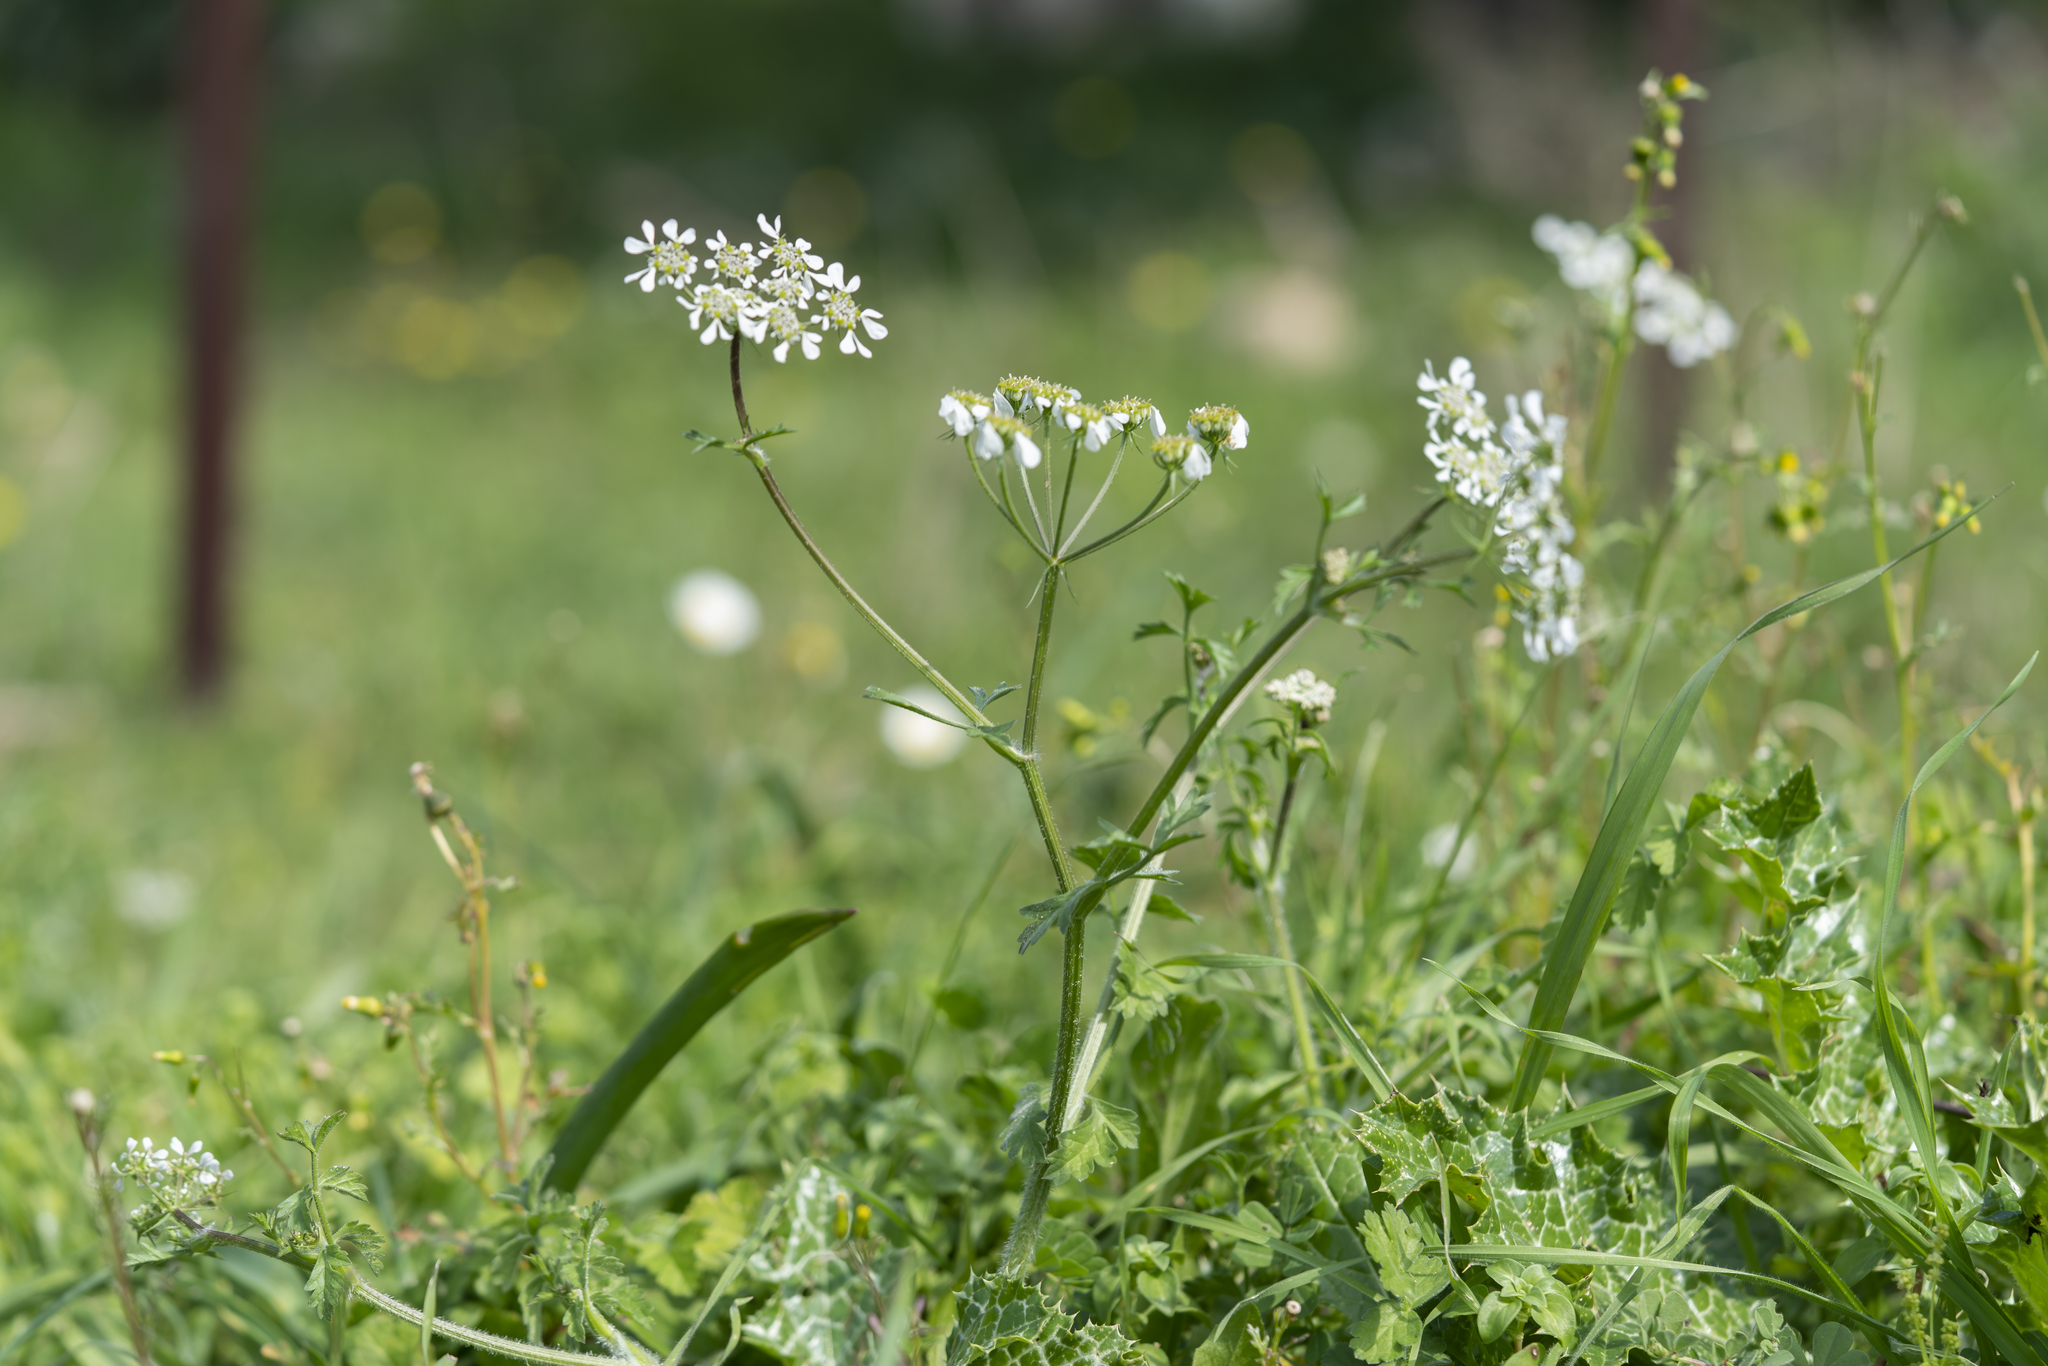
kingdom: Plantae
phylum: Tracheophyta
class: Magnoliopsida
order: Apiales
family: Apiaceae
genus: Tordylium
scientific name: Tordylium apulum
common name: Mediterranean hartwort
